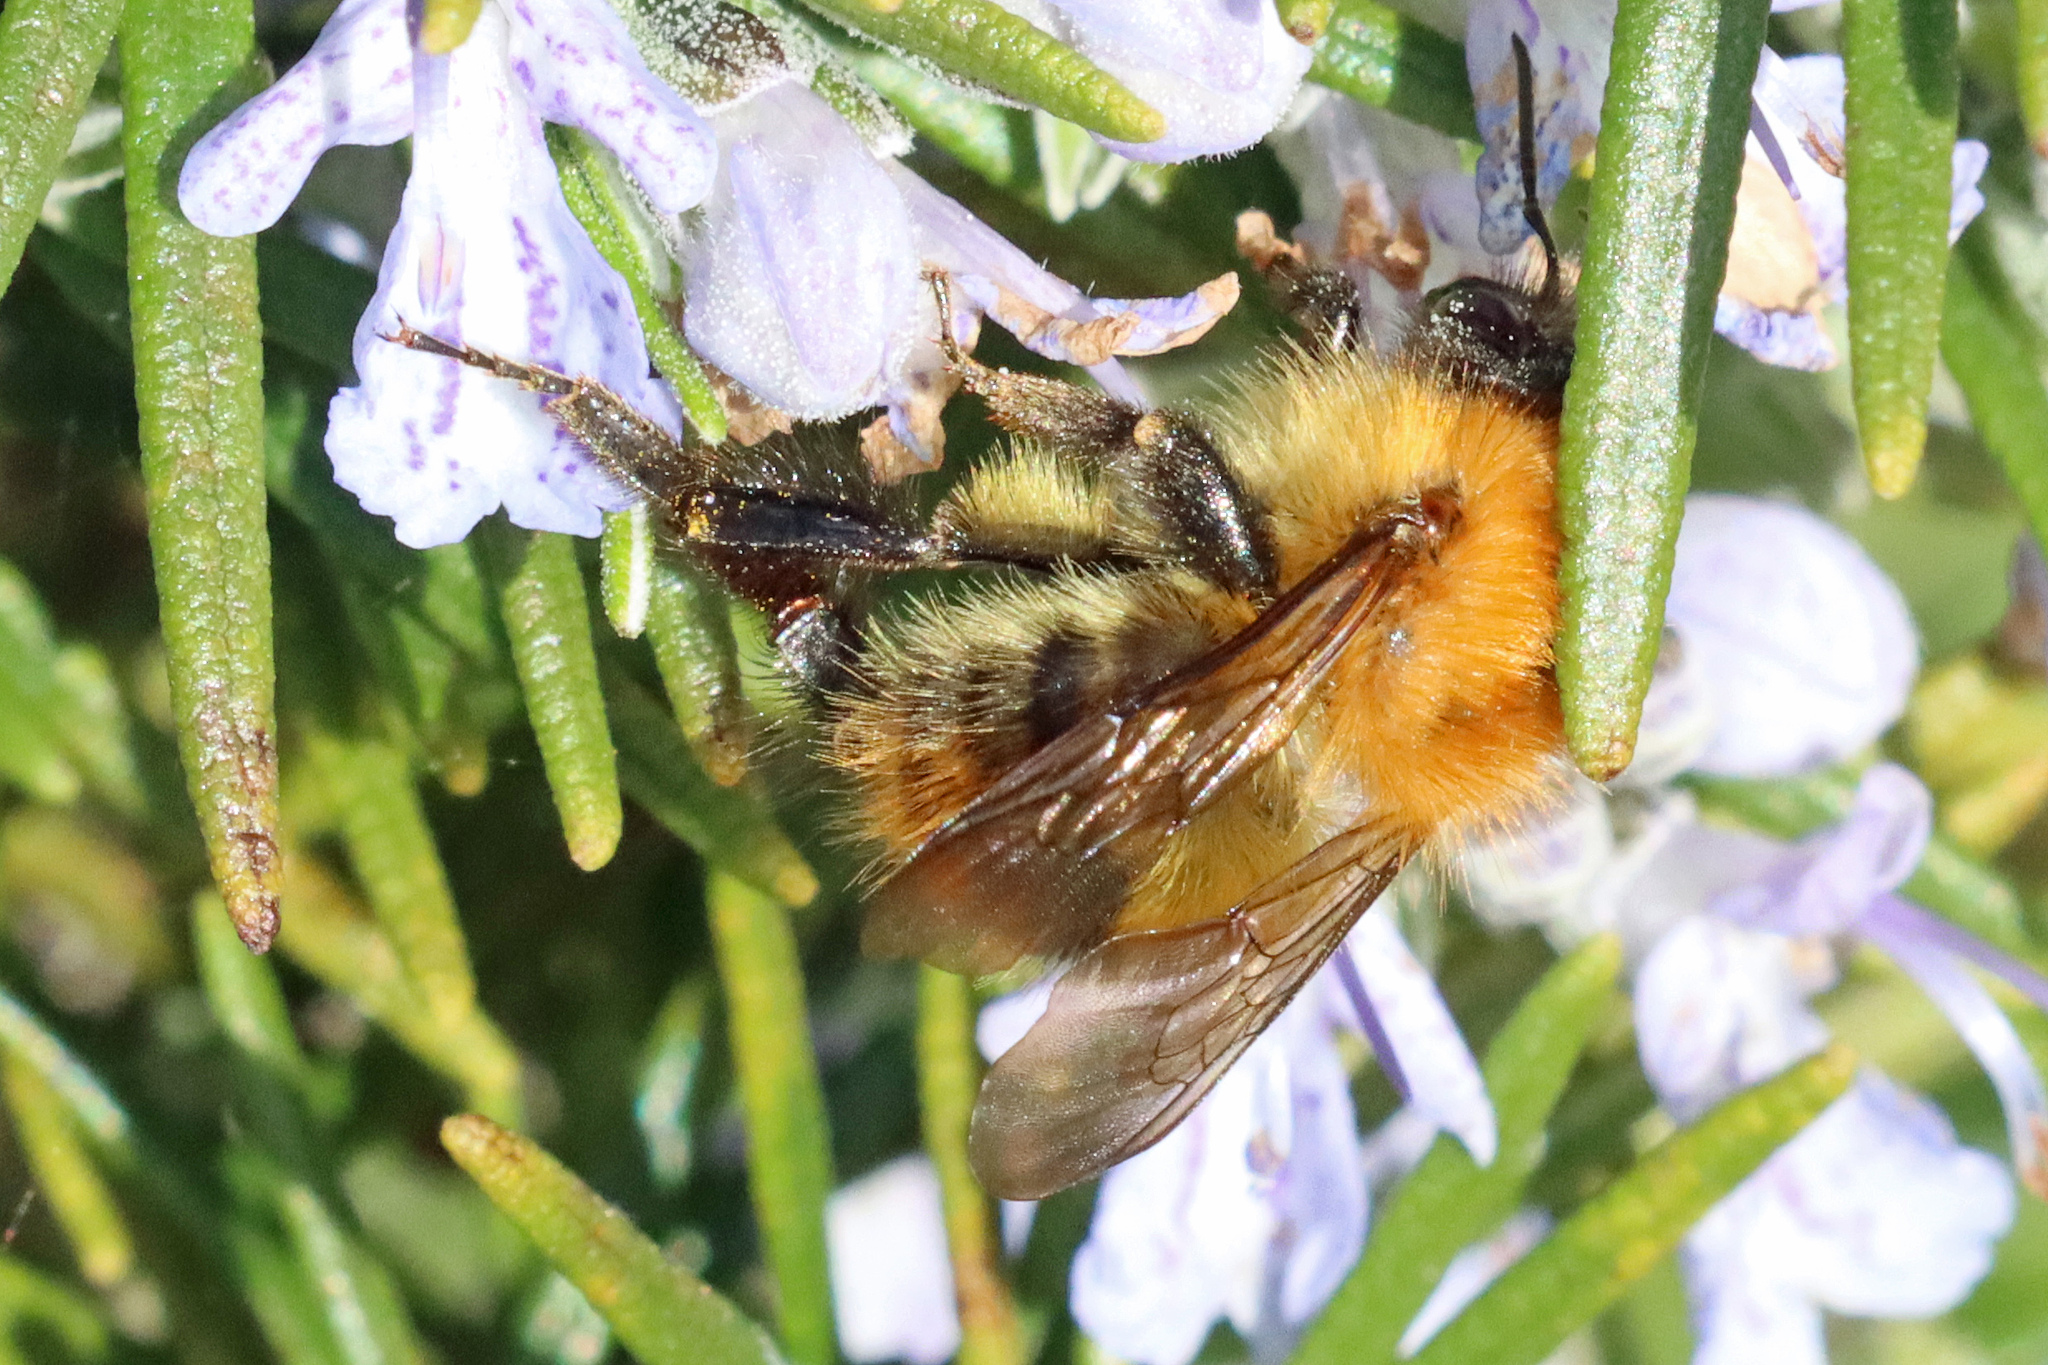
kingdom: Animalia
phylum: Arthropoda
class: Insecta
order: Hymenoptera
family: Apidae
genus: Bombus
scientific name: Bombus pascuorum
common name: Common carder bee
